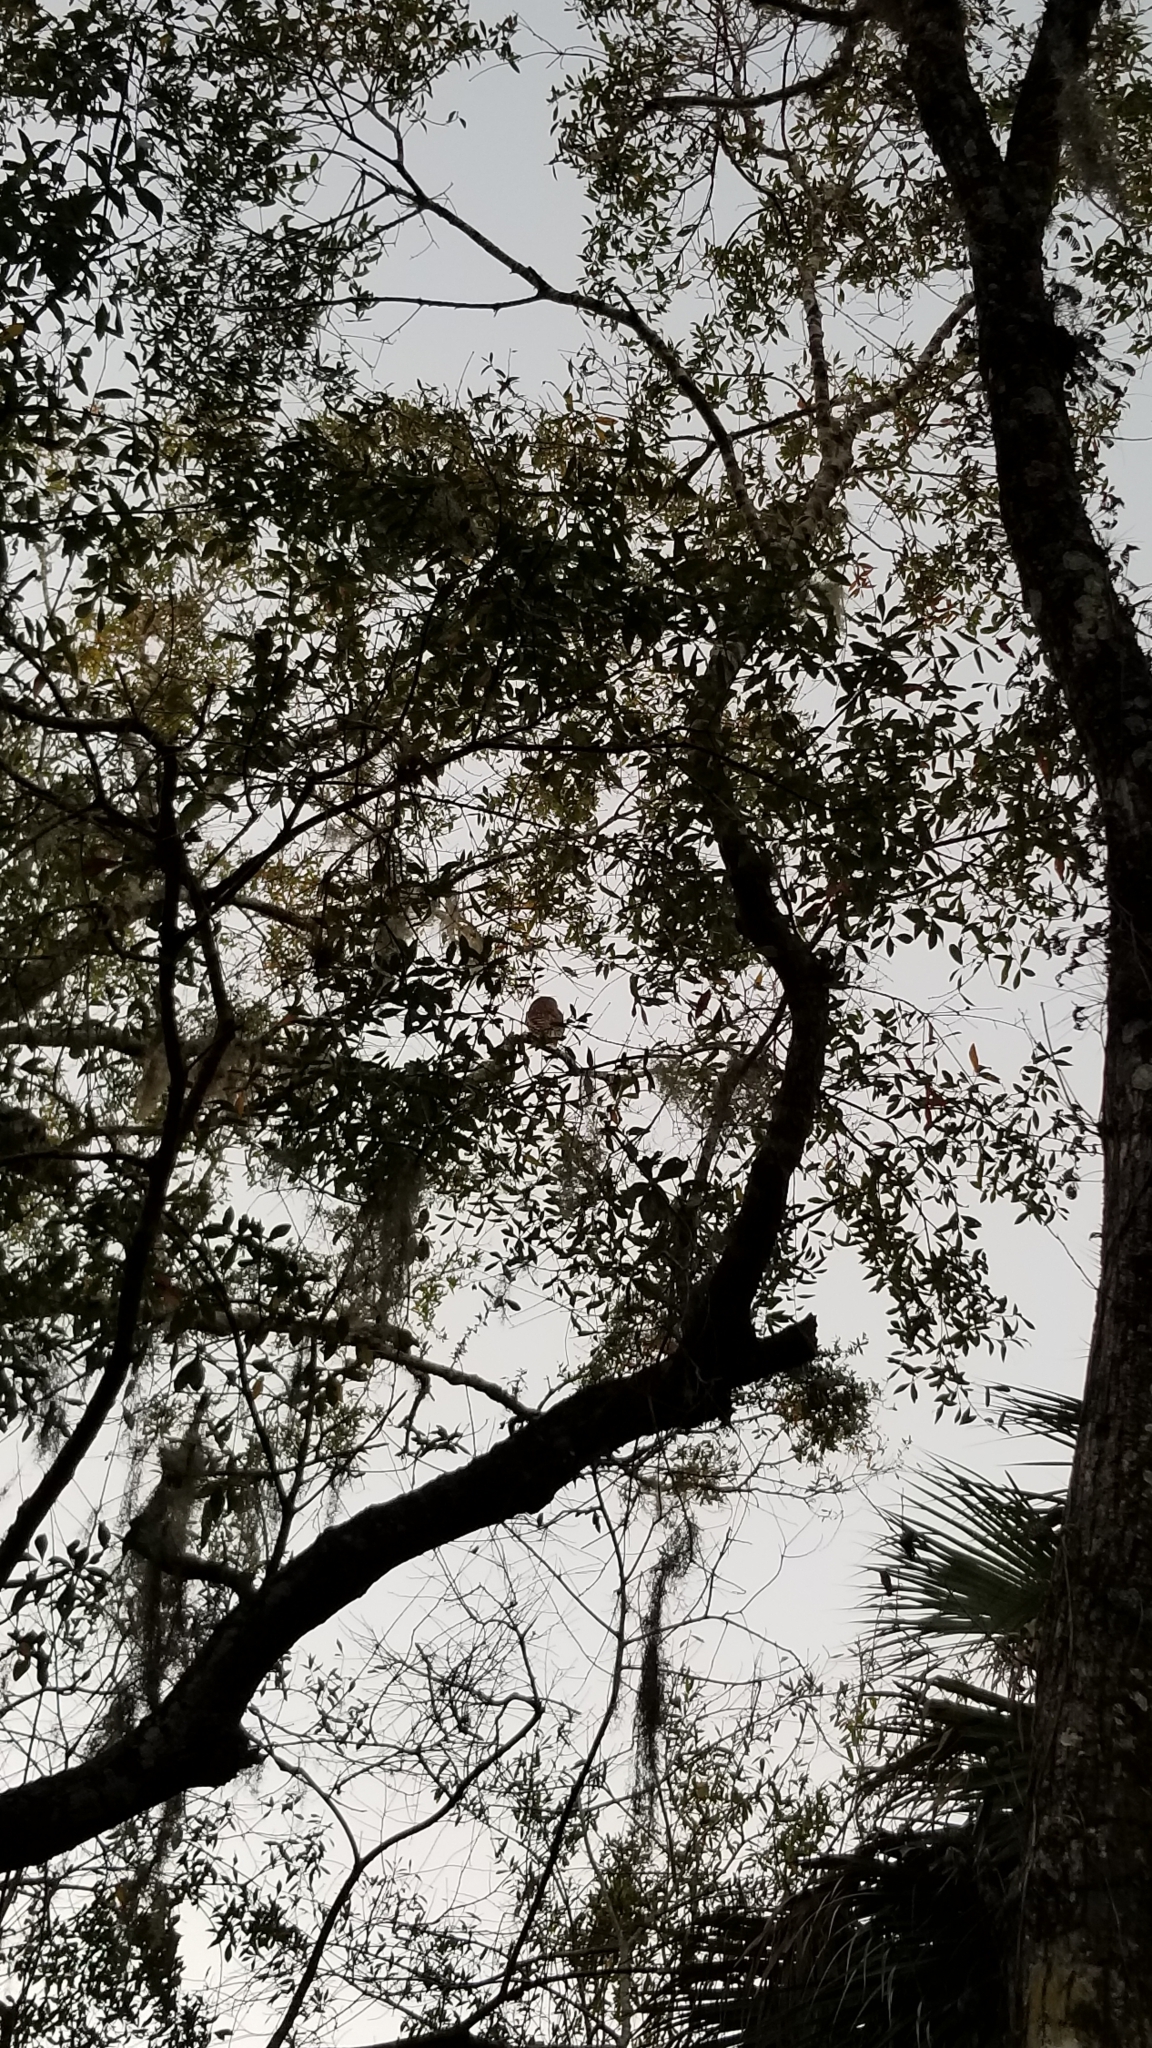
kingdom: Animalia
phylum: Chordata
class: Aves
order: Strigiformes
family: Strigidae
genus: Strix
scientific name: Strix varia
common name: Barred owl
